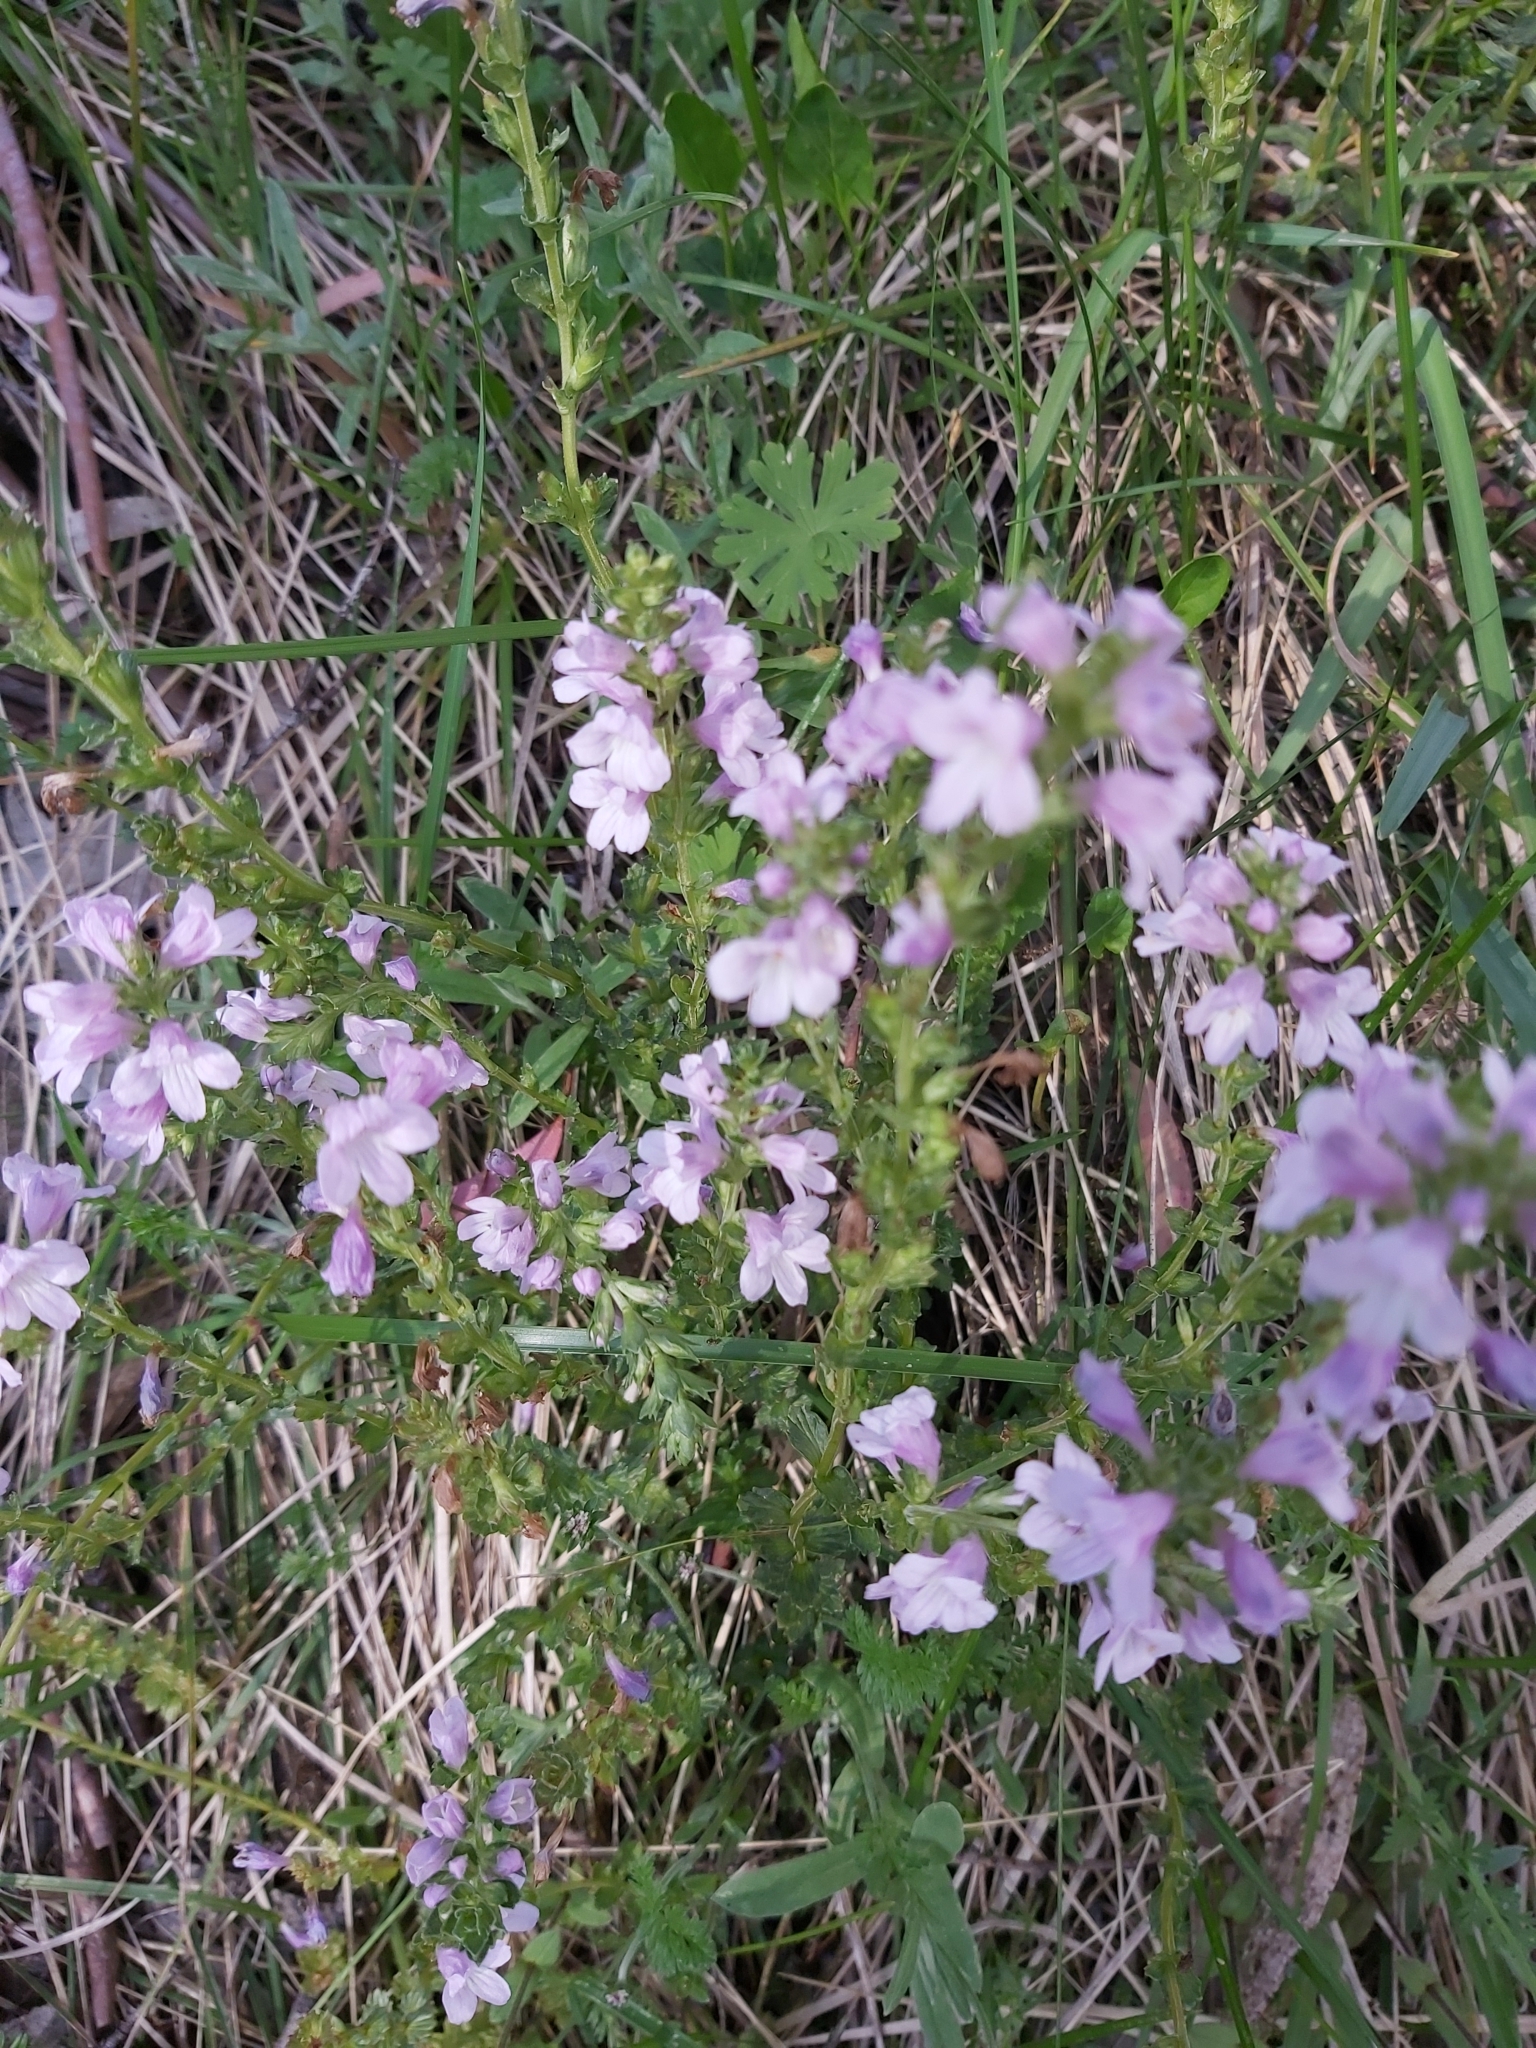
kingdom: Plantae
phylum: Tracheophyta
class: Magnoliopsida
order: Lamiales
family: Orobanchaceae
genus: Euphrasia
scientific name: Euphrasia collina
